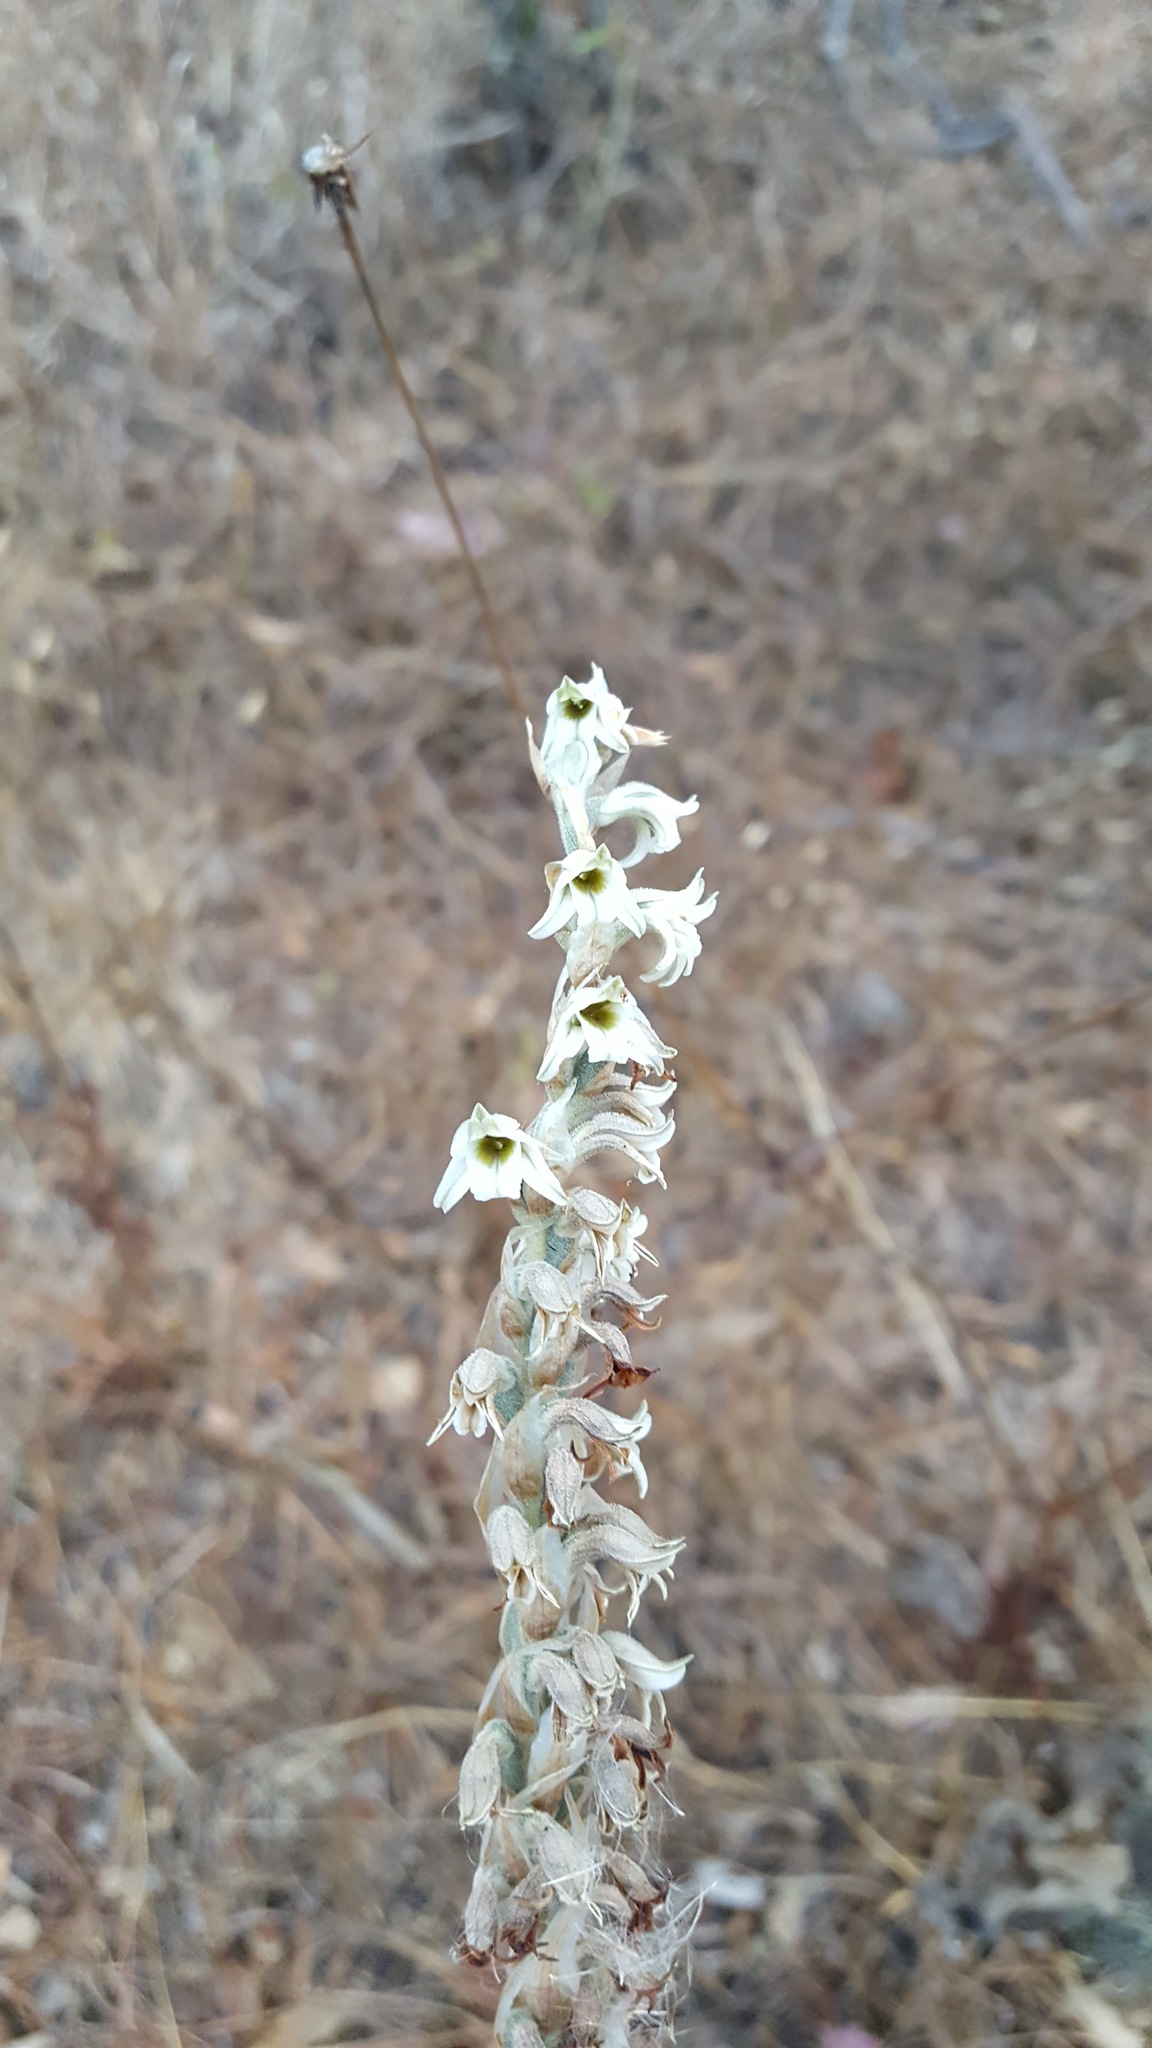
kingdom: Plantae
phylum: Tracheophyta
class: Liliopsida
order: Asparagales
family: Orchidaceae
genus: Deiregyne
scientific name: Deiregyne rhombilabia
